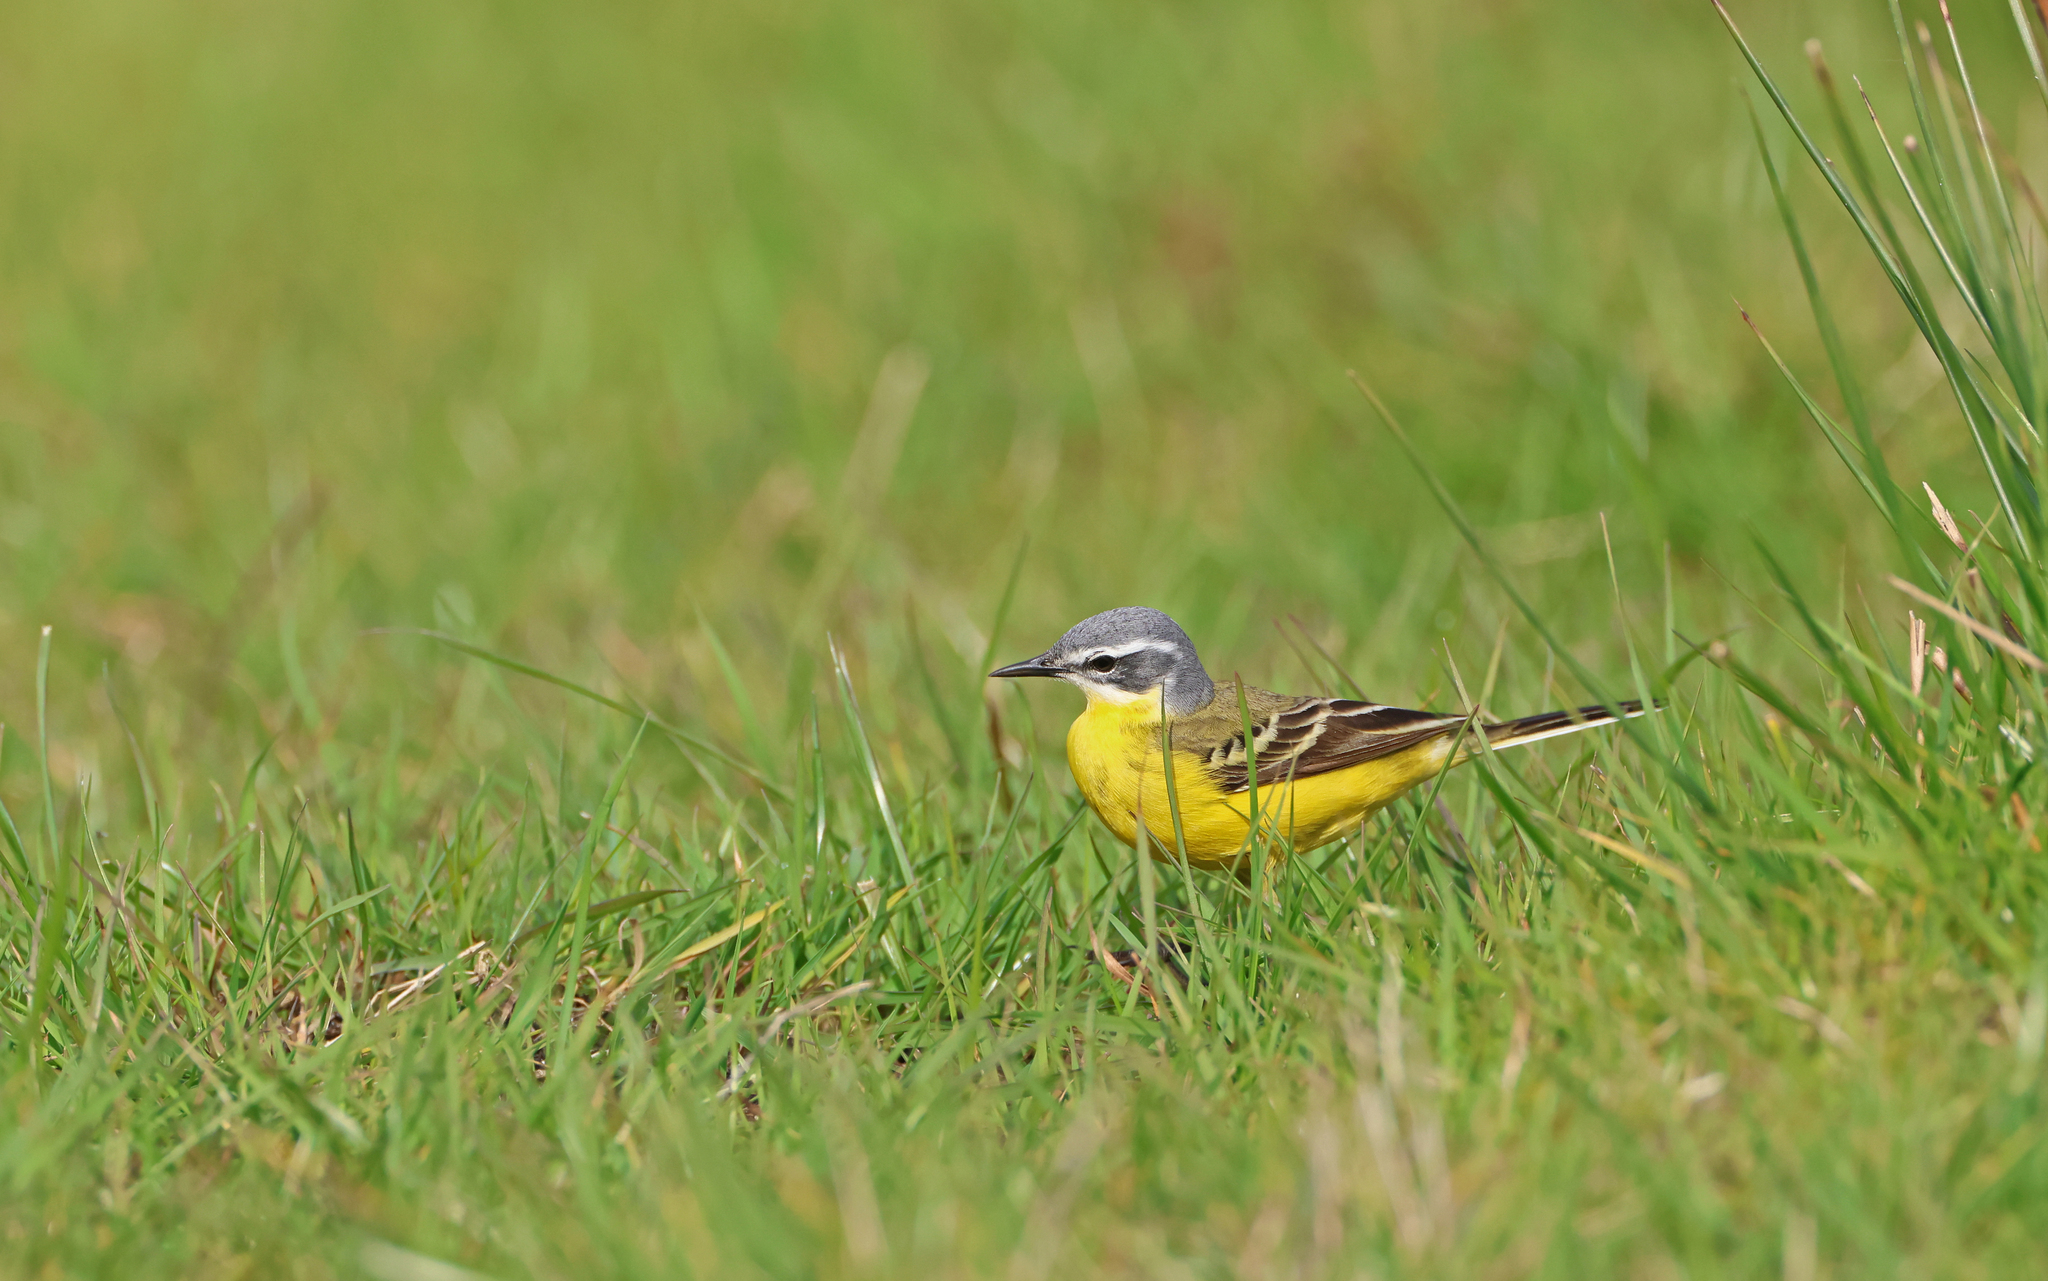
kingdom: Animalia
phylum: Chordata
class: Aves
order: Passeriformes
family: Motacillidae
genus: Motacilla
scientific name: Motacilla flava
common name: Western yellow wagtail
